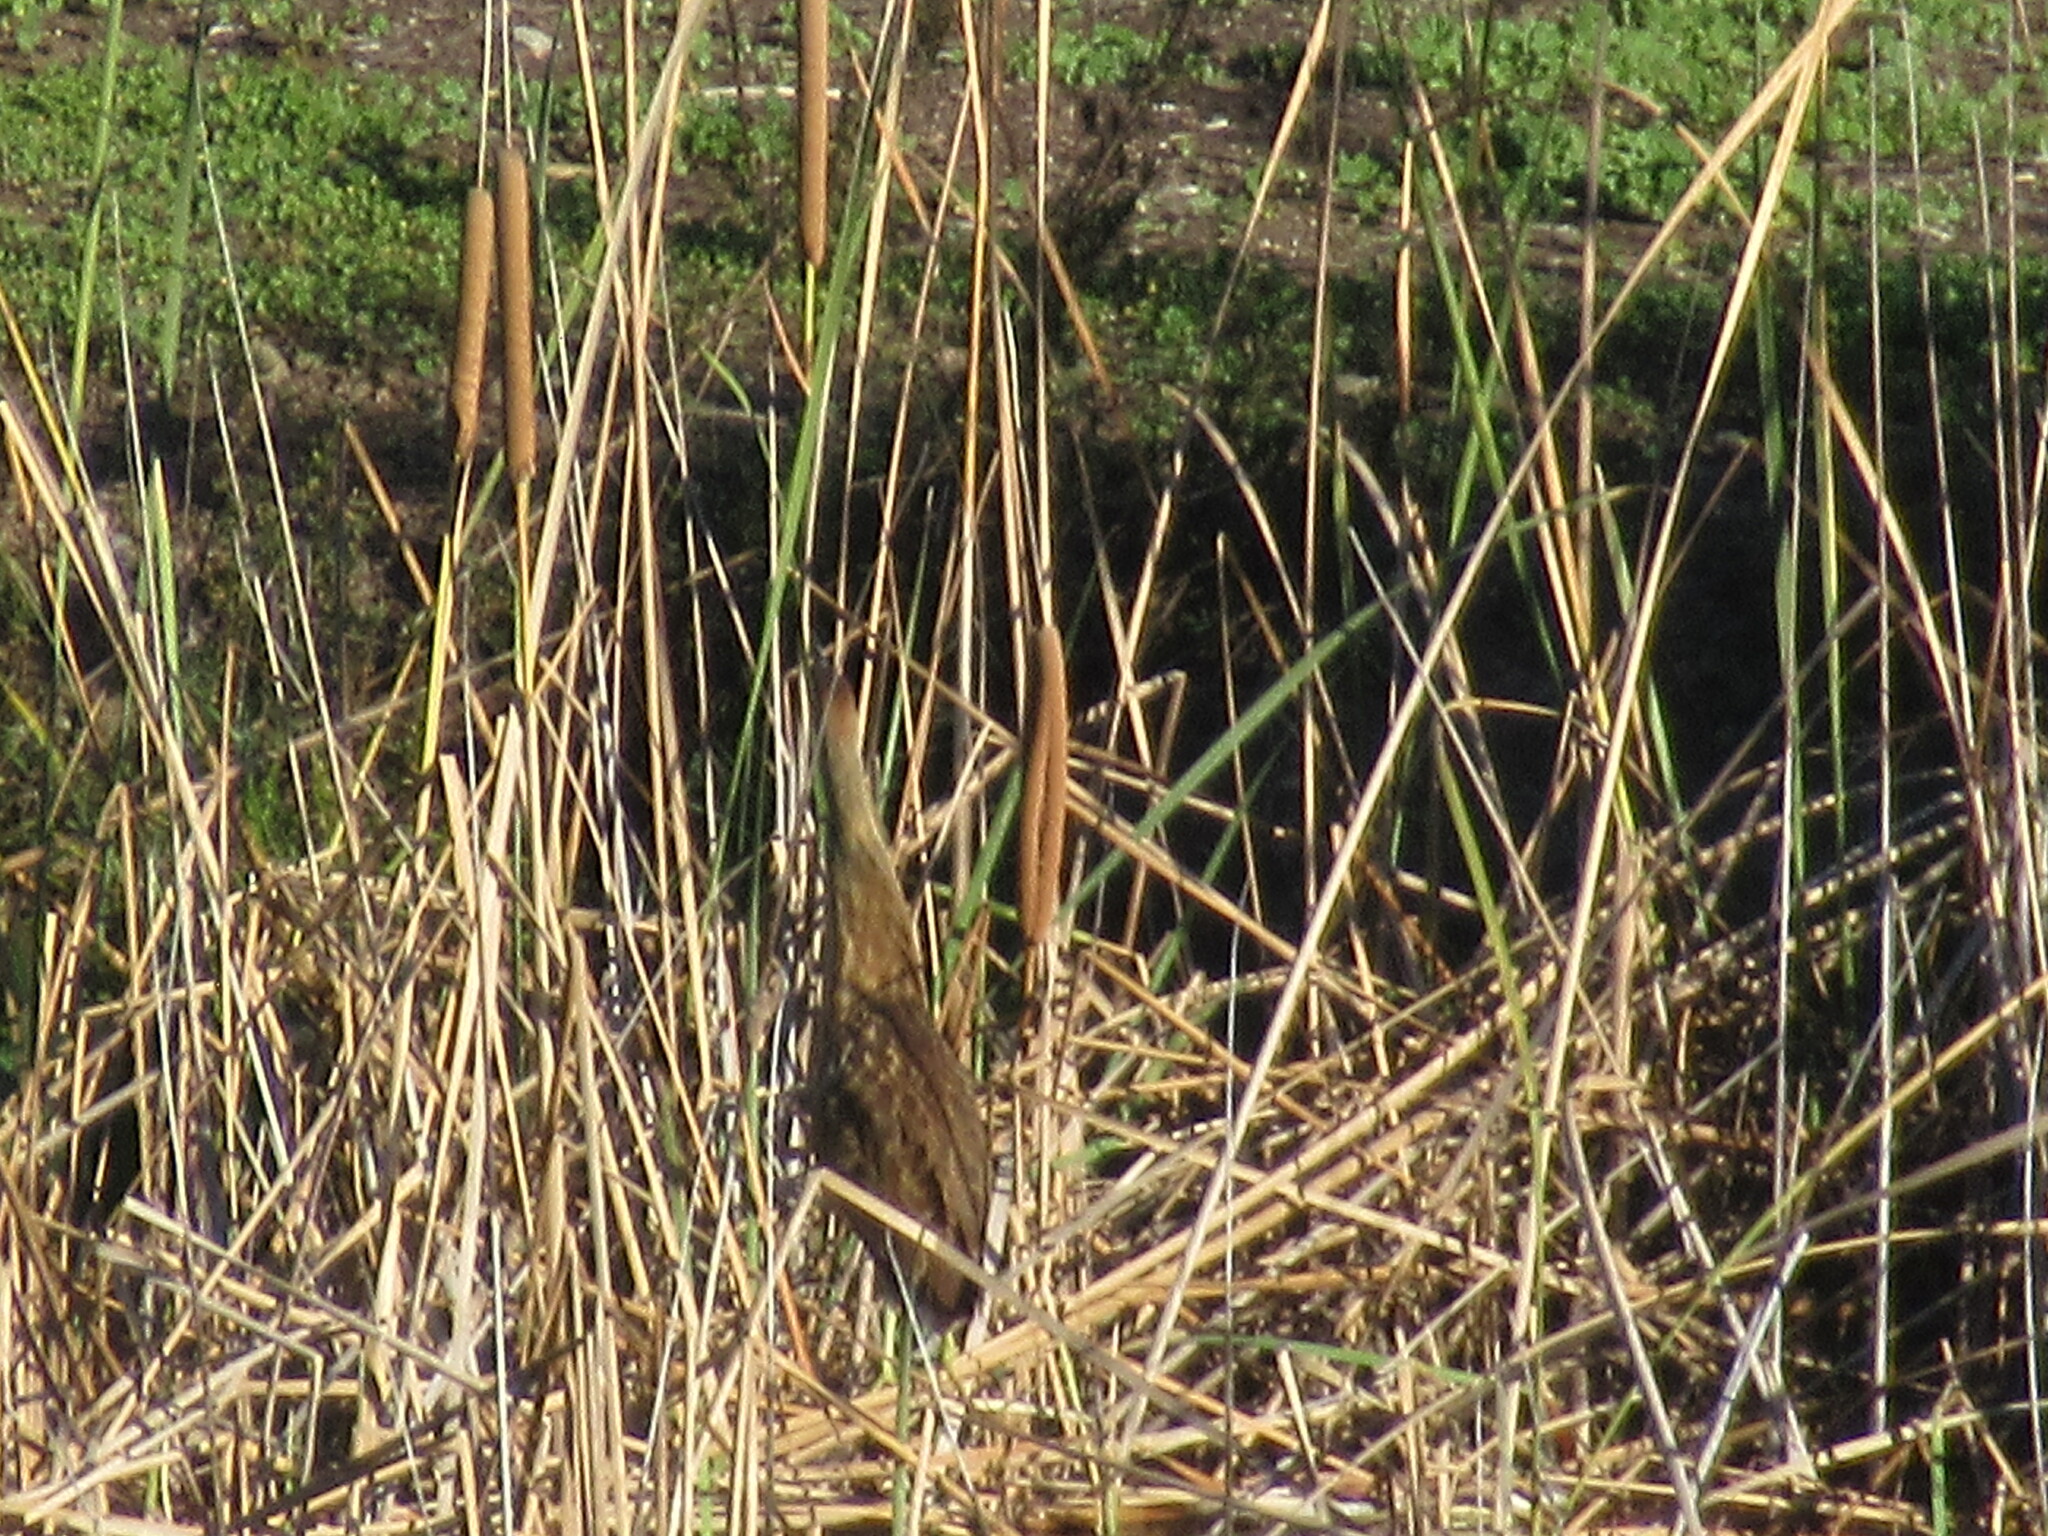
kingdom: Animalia
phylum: Chordata
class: Aves
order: Pelecaniformes
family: Ardeidae
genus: Botaurus
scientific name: Botaurus lentiginosus
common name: American bittern
